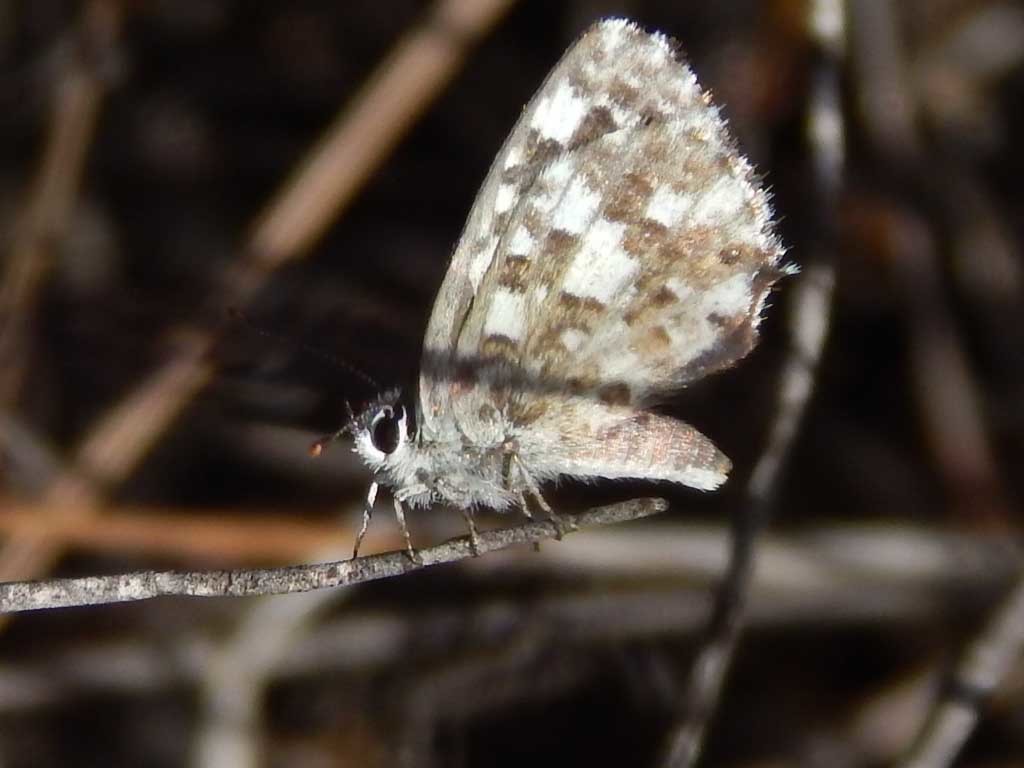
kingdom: Animalia
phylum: Arthropoda
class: Insecta
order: Lepidoptera
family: Lycaenidae
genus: Tarucus
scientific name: Tarucus thespis
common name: Vivid dotted blue
